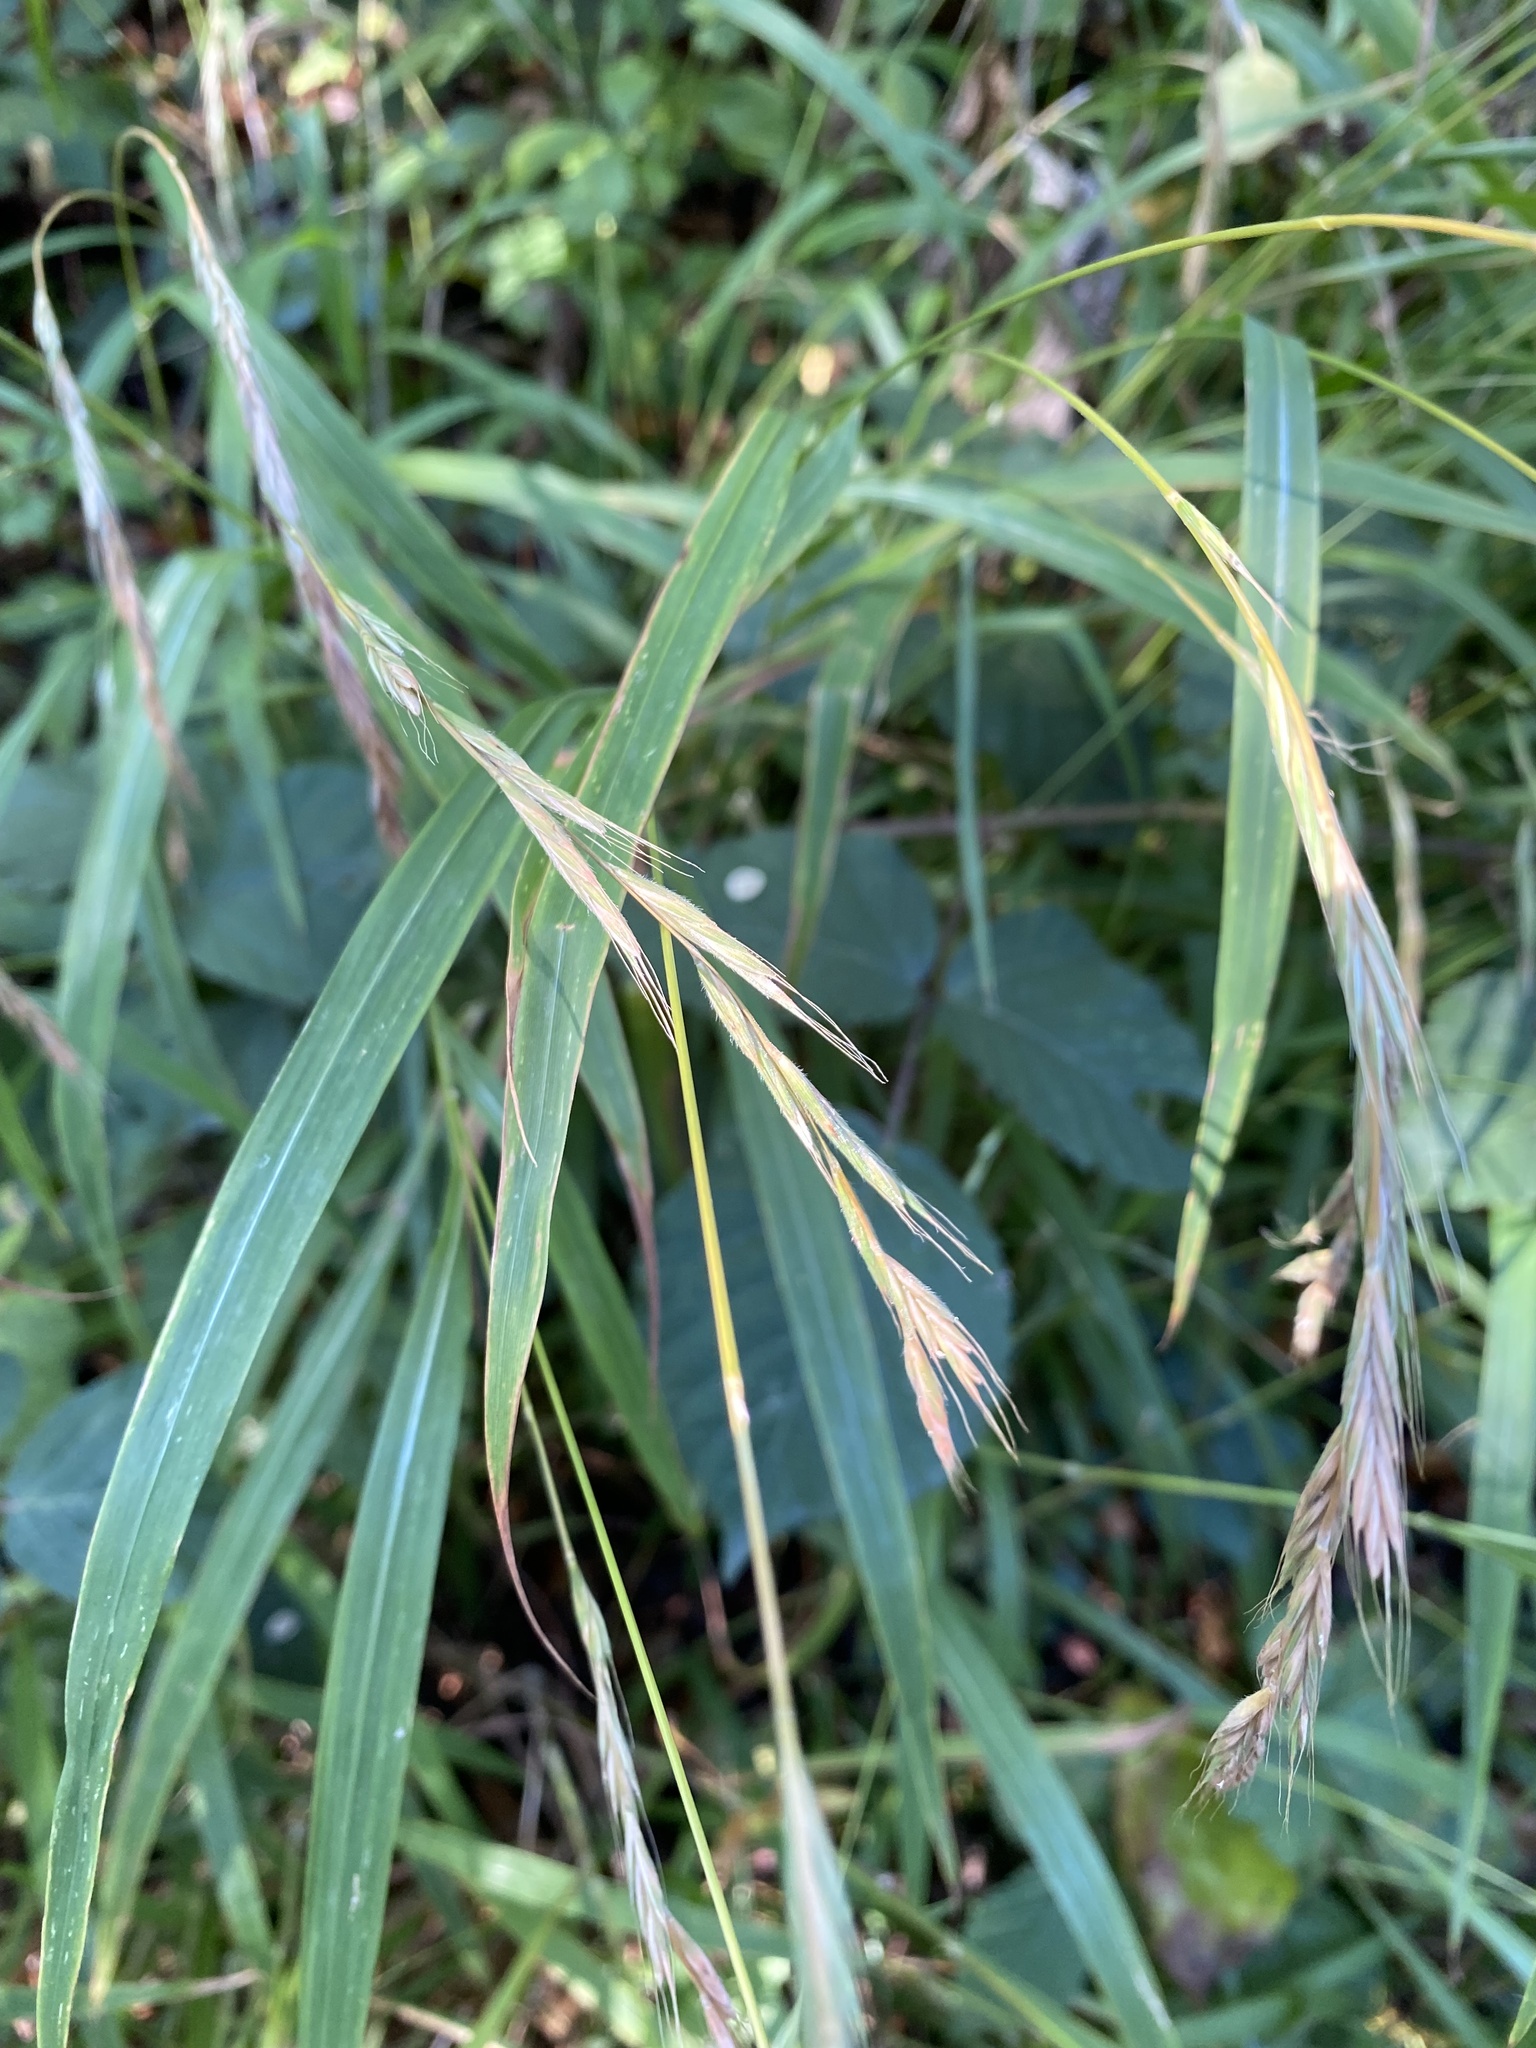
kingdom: Plantae
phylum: Tracheophyta
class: Liliopsida
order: Poales
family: Poaceae
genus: Brachypodium
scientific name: Brachypodium sylvaticum
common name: False-brome
